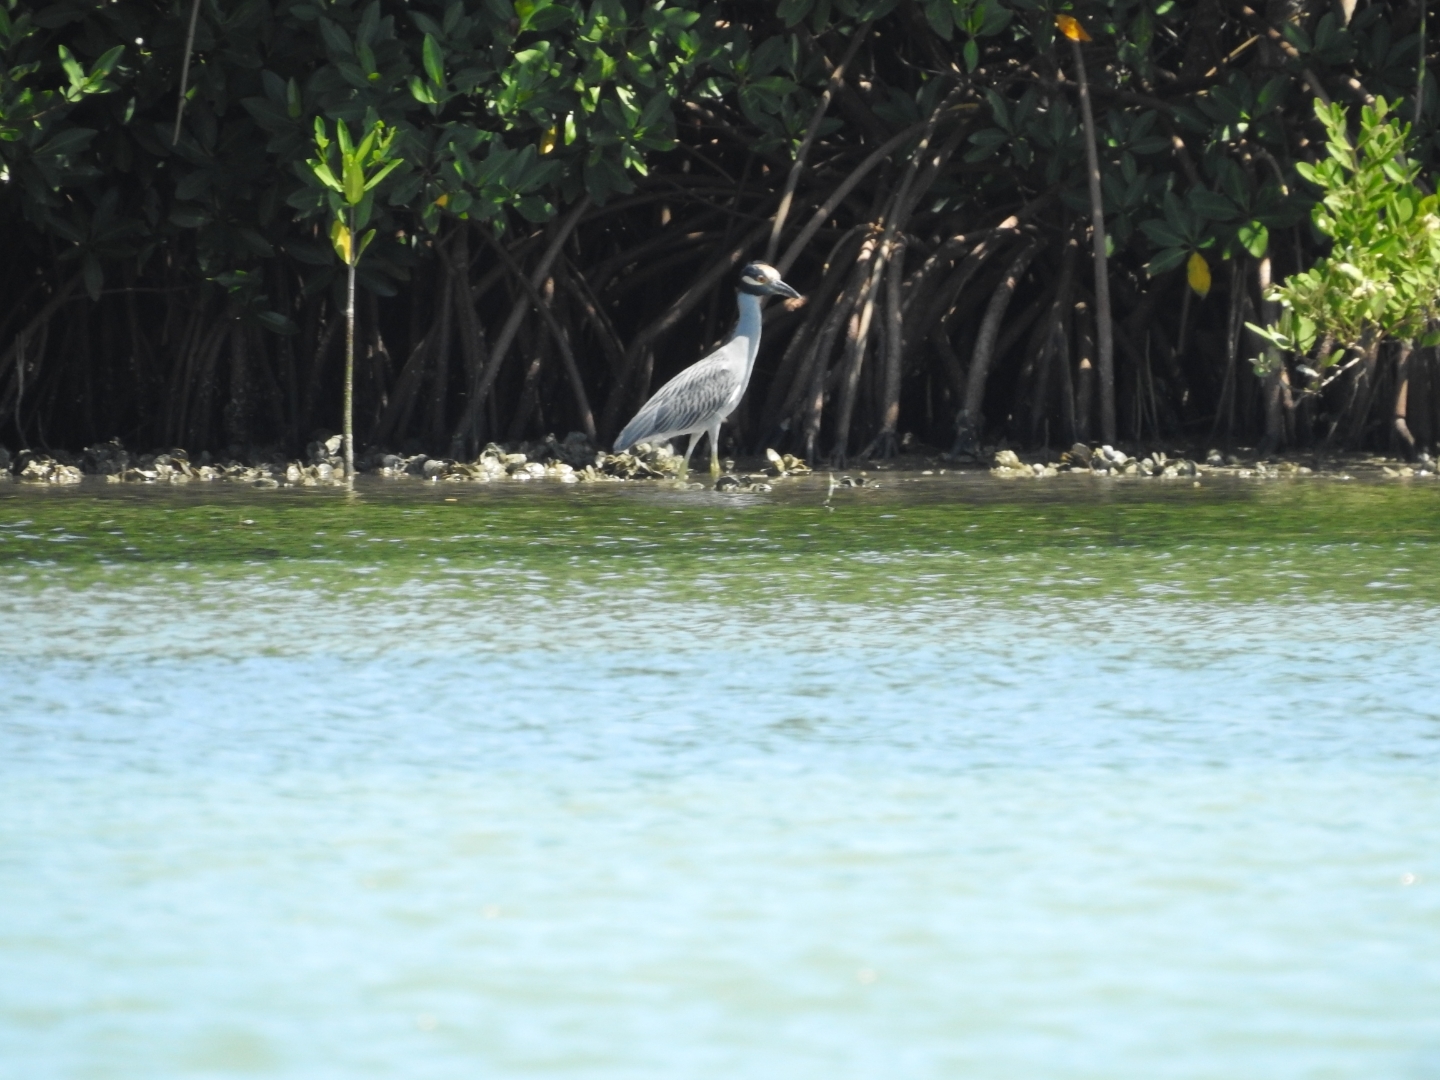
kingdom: Animalia
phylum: Chordata
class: Aves
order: Pelecaniformes
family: Ardeidae
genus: Nyctanassa
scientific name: Nyctanassa violacea
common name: Yellow-crowned night heron
